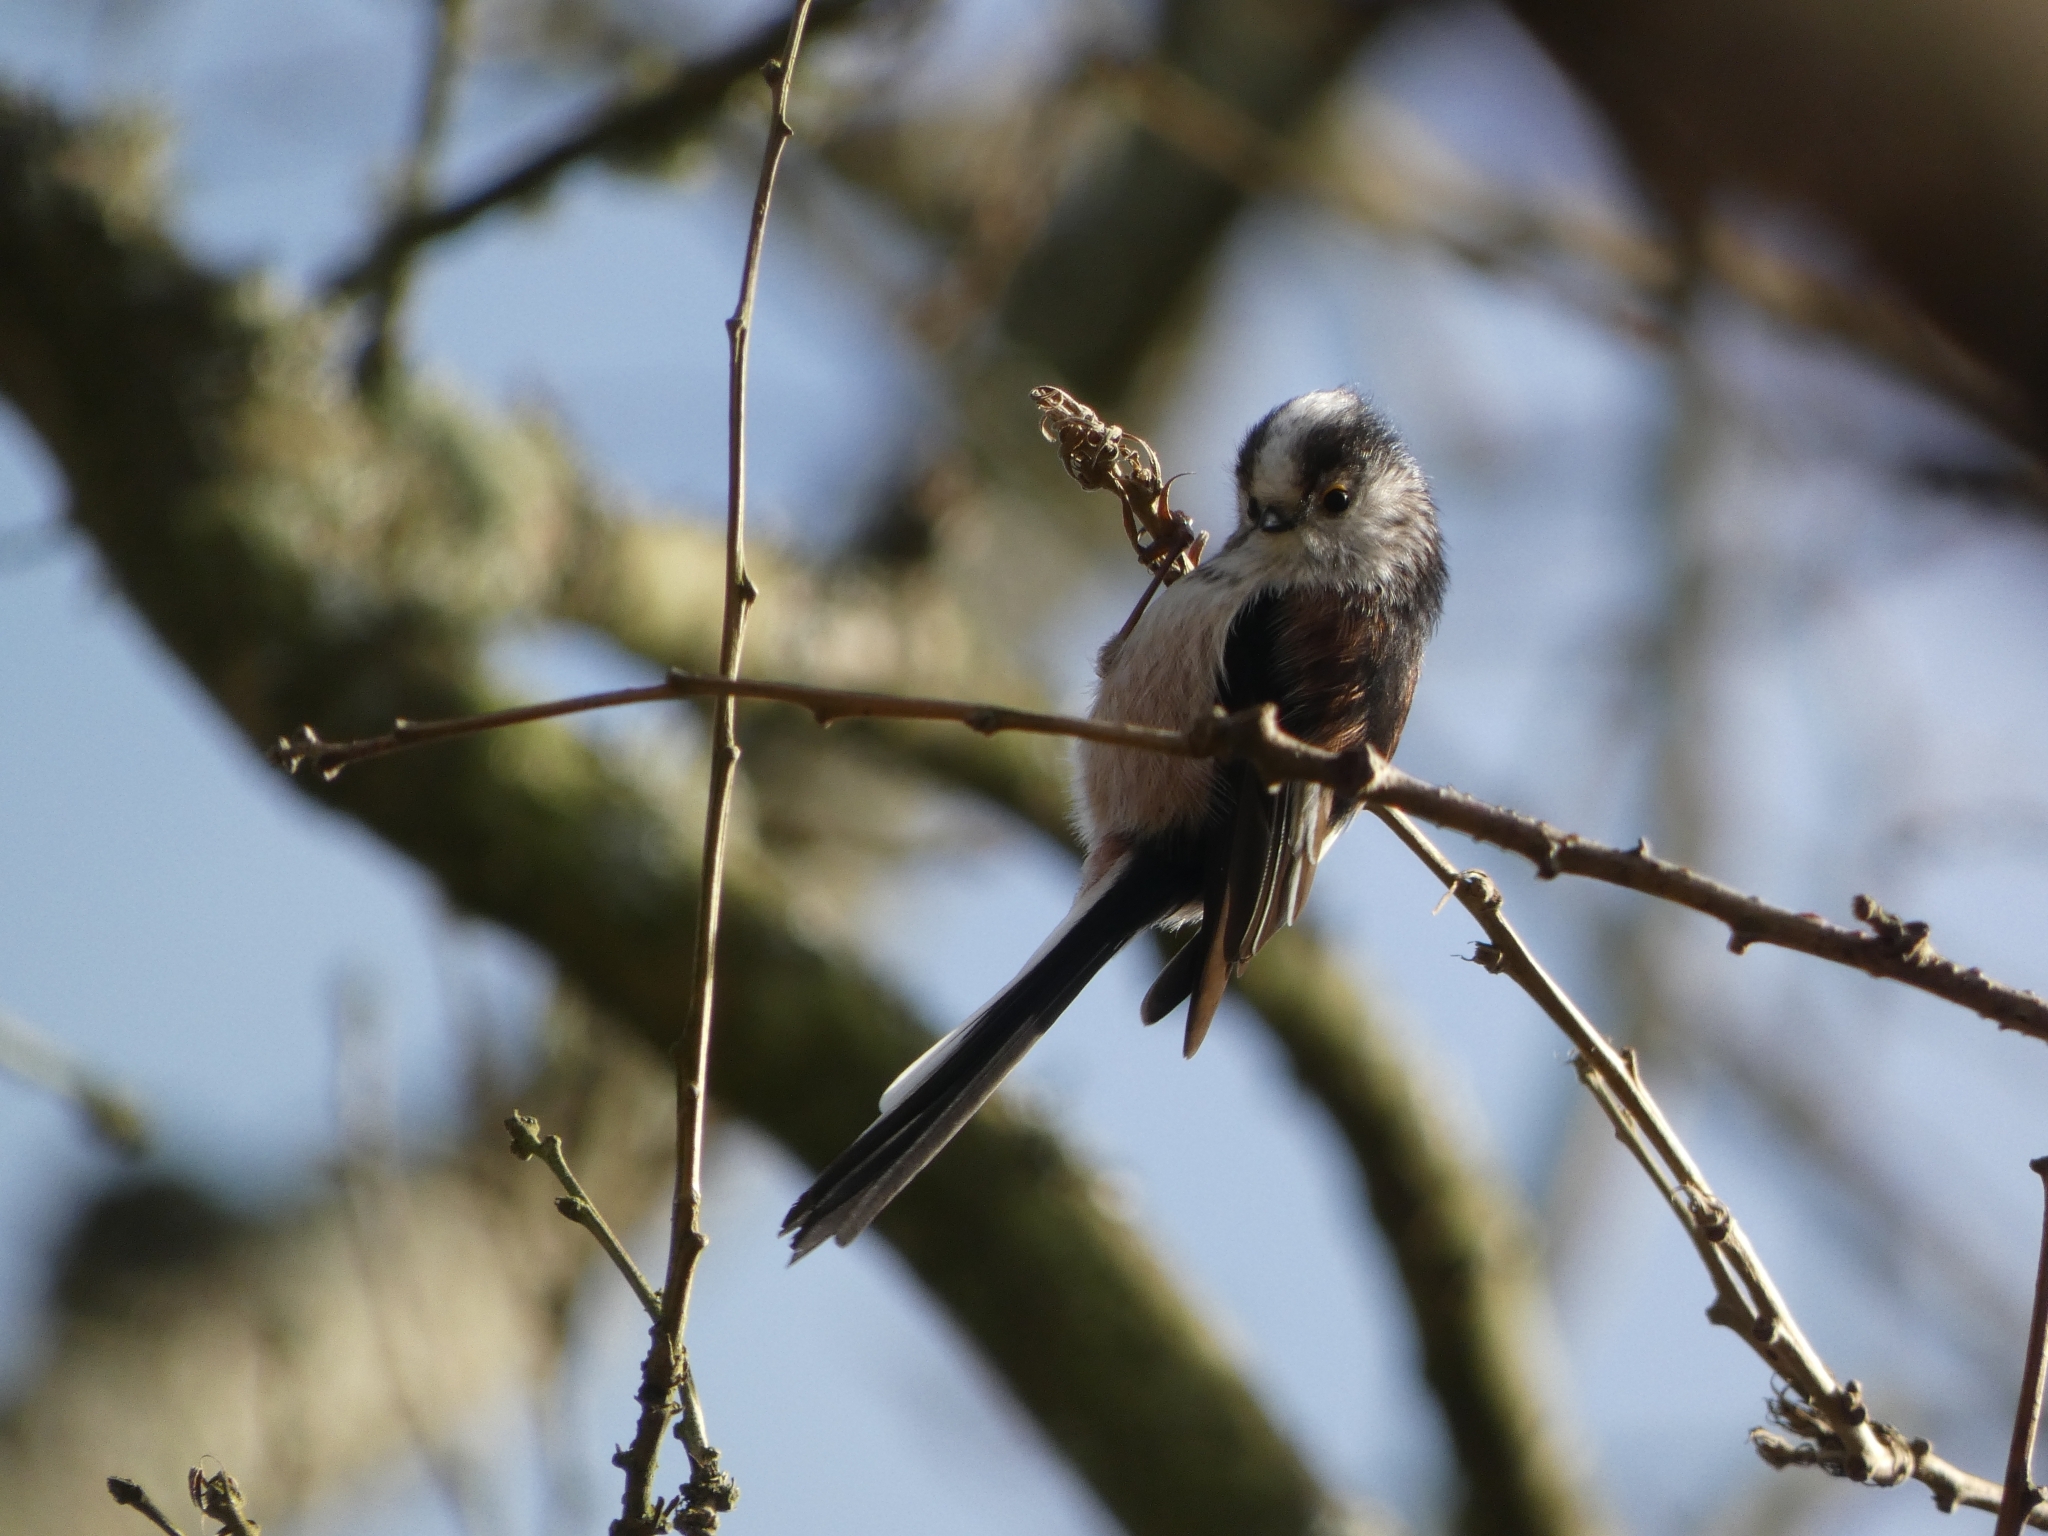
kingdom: Animalia
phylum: Chordata
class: Aves
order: Passeriformes
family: Aegithalidae
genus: Aegithalos
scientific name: Aegithalos caudatus
